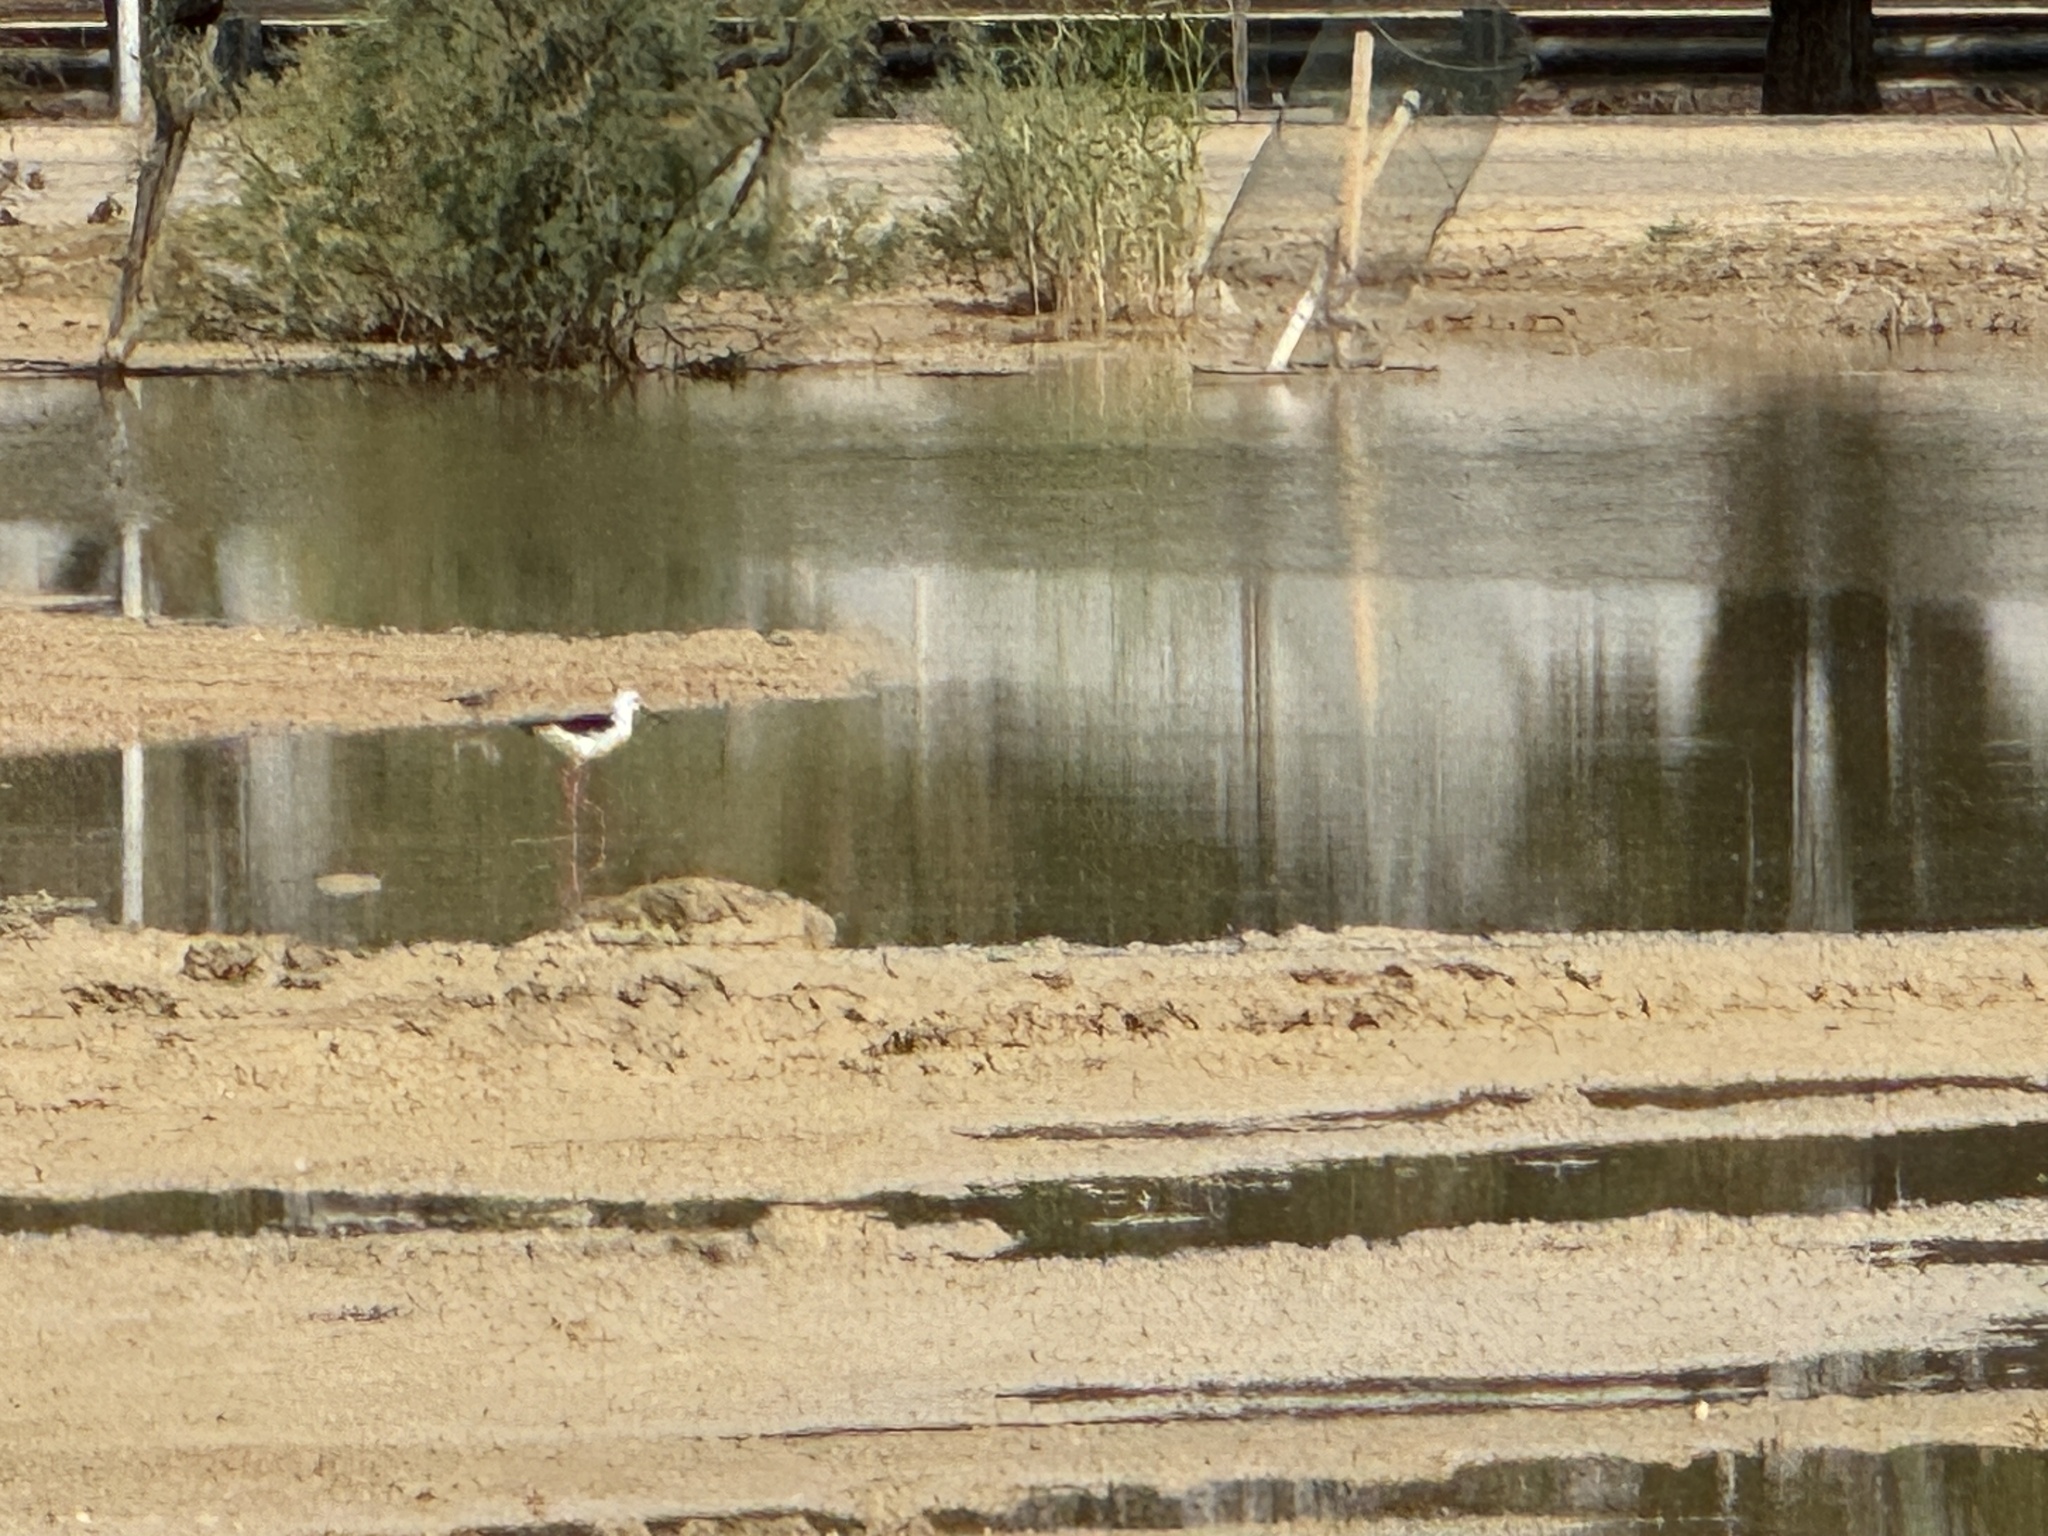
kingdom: Animalia
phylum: Chordata
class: Aves
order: Charadriiformes
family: Recurvirostridae
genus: Himantopus
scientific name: Himantopus himantopus
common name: Black-winged stilt
